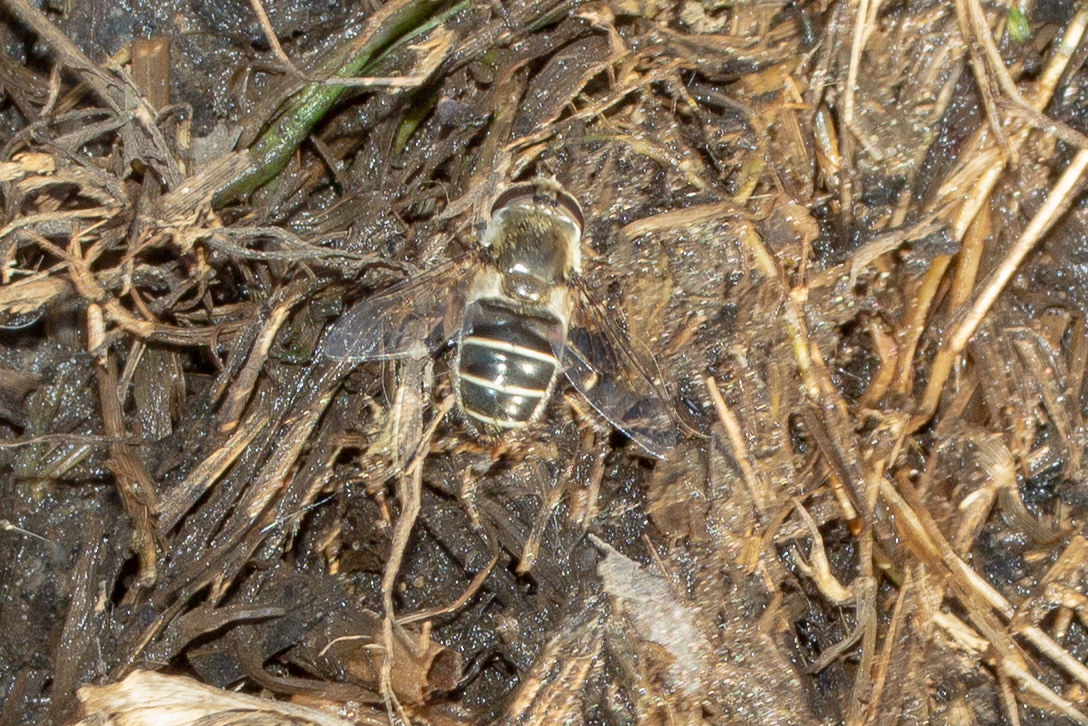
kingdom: Animalia
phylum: Arthropoda
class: Insecta
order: Diptera
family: Syrphidae
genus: Eristalis
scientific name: Eristalis dimidiata
